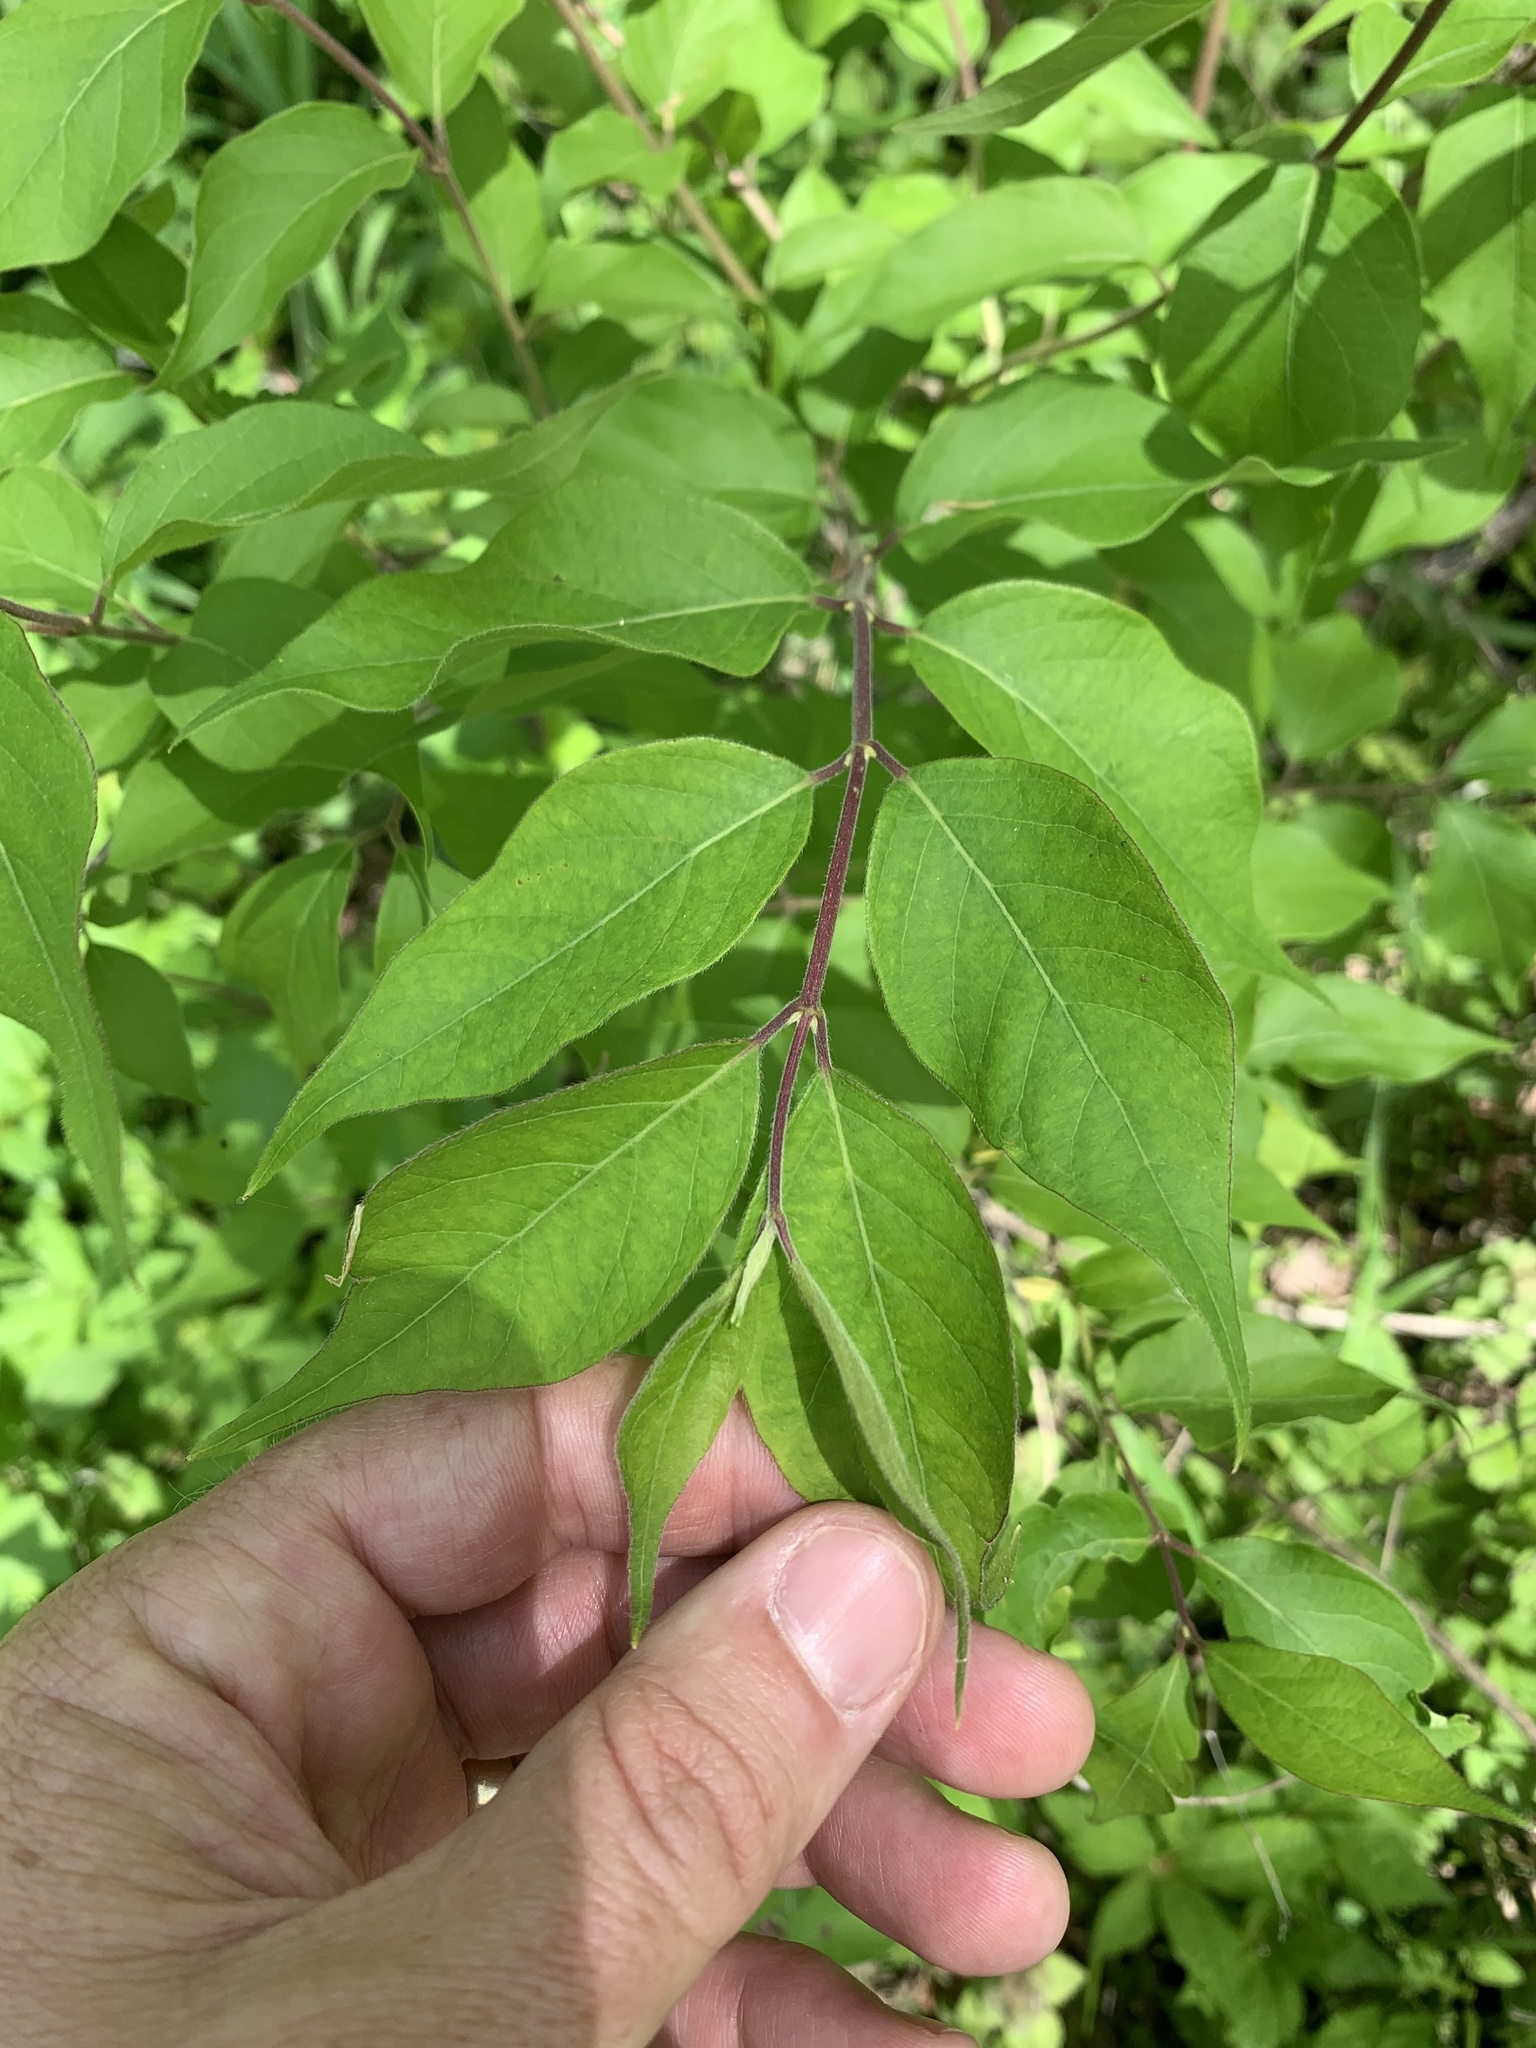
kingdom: Plantae
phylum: Tracheophyta
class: Magnoliopsida
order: Dipsacales
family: Caprifoliaceae
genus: Lonicera
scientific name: Lonicera maackii
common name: Amur honeysuckle
